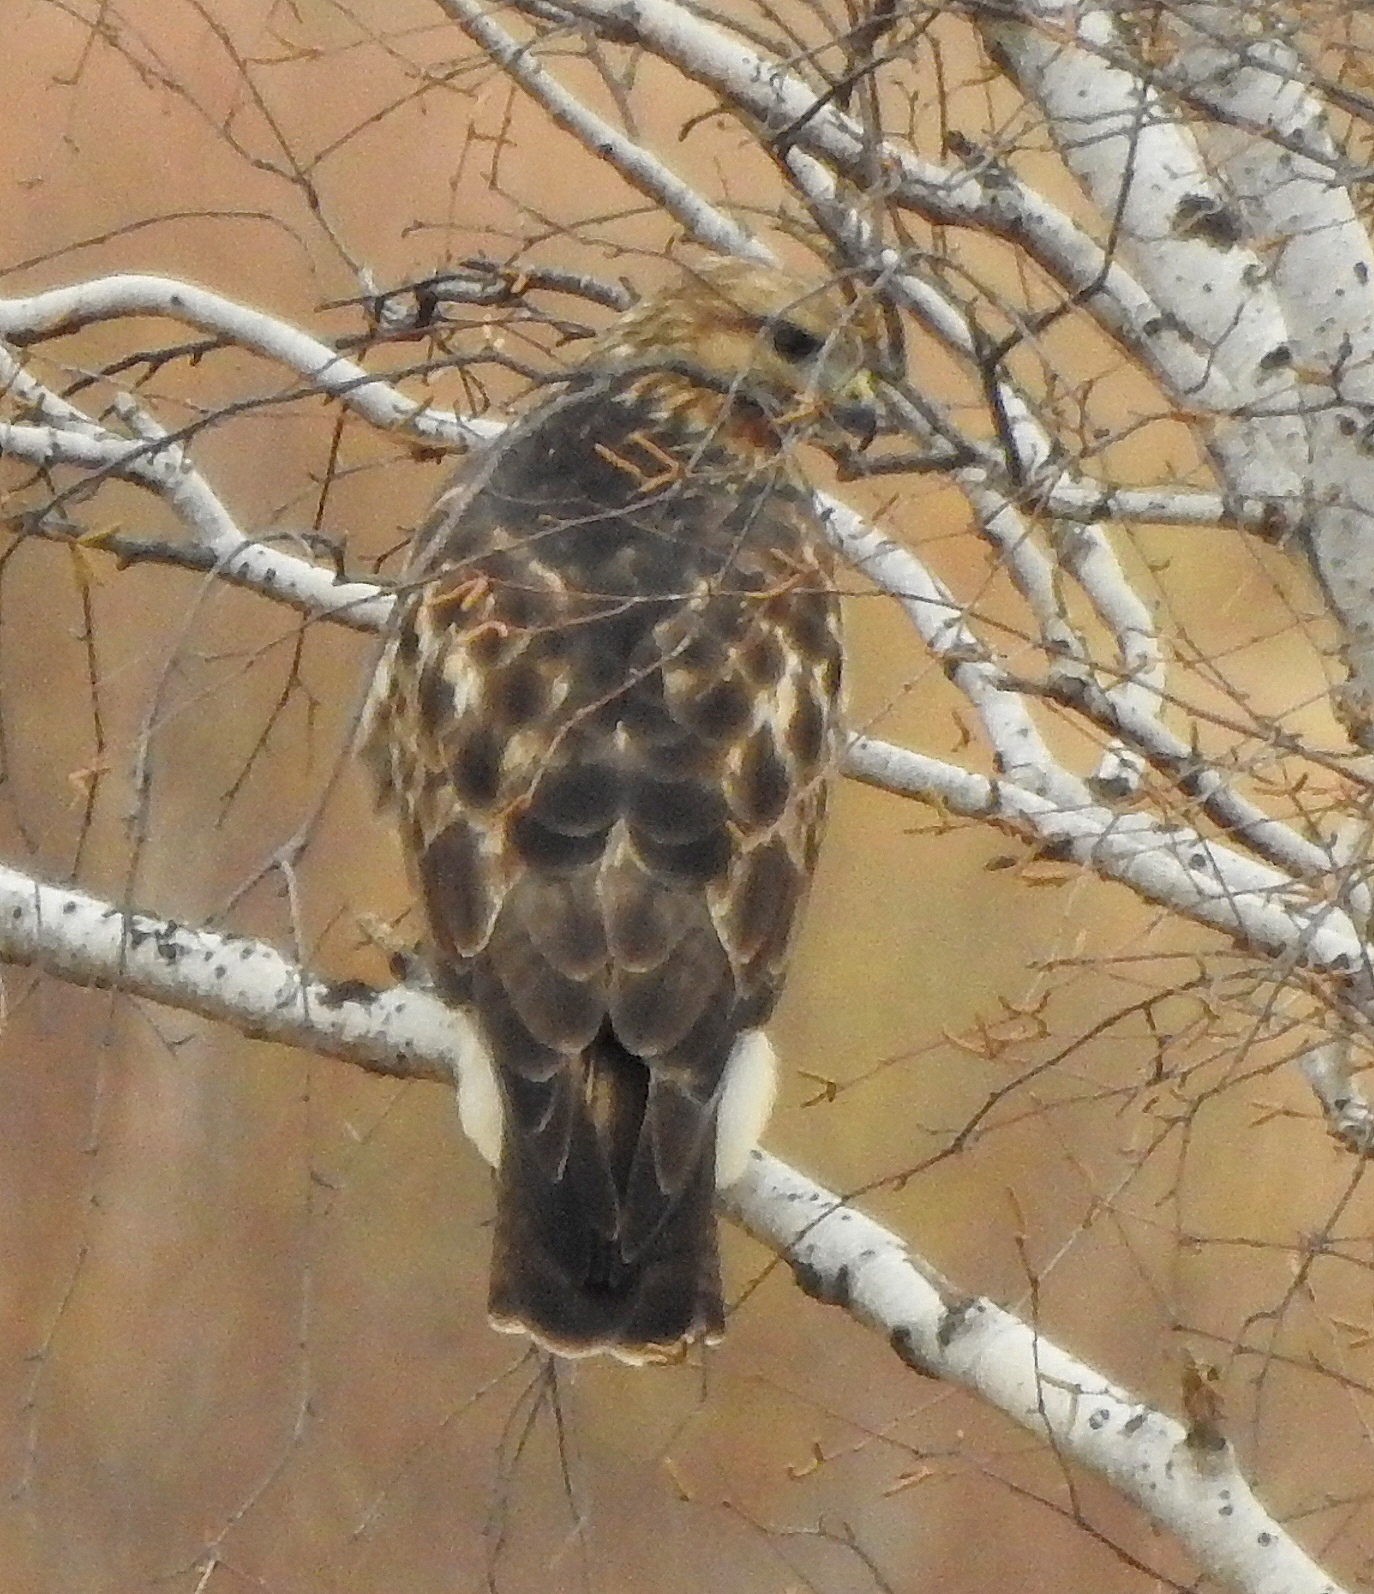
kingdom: Animalia
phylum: Chordata
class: Aves
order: Accipitriformes
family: Accipitridae
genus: Buteo
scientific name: Buteo japonicus
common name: Eastern buzzard
